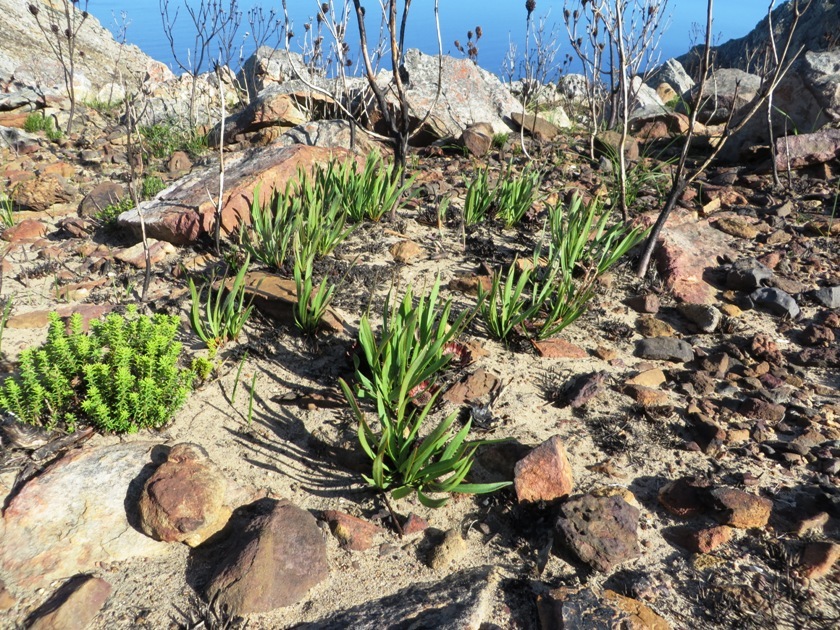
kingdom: Plantae
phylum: Tracheophyta
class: Magnoliopsida
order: Proteales
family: Proteaceae
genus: Protea
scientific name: Protea scabra
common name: Sandpaper-leaf sugarbush
